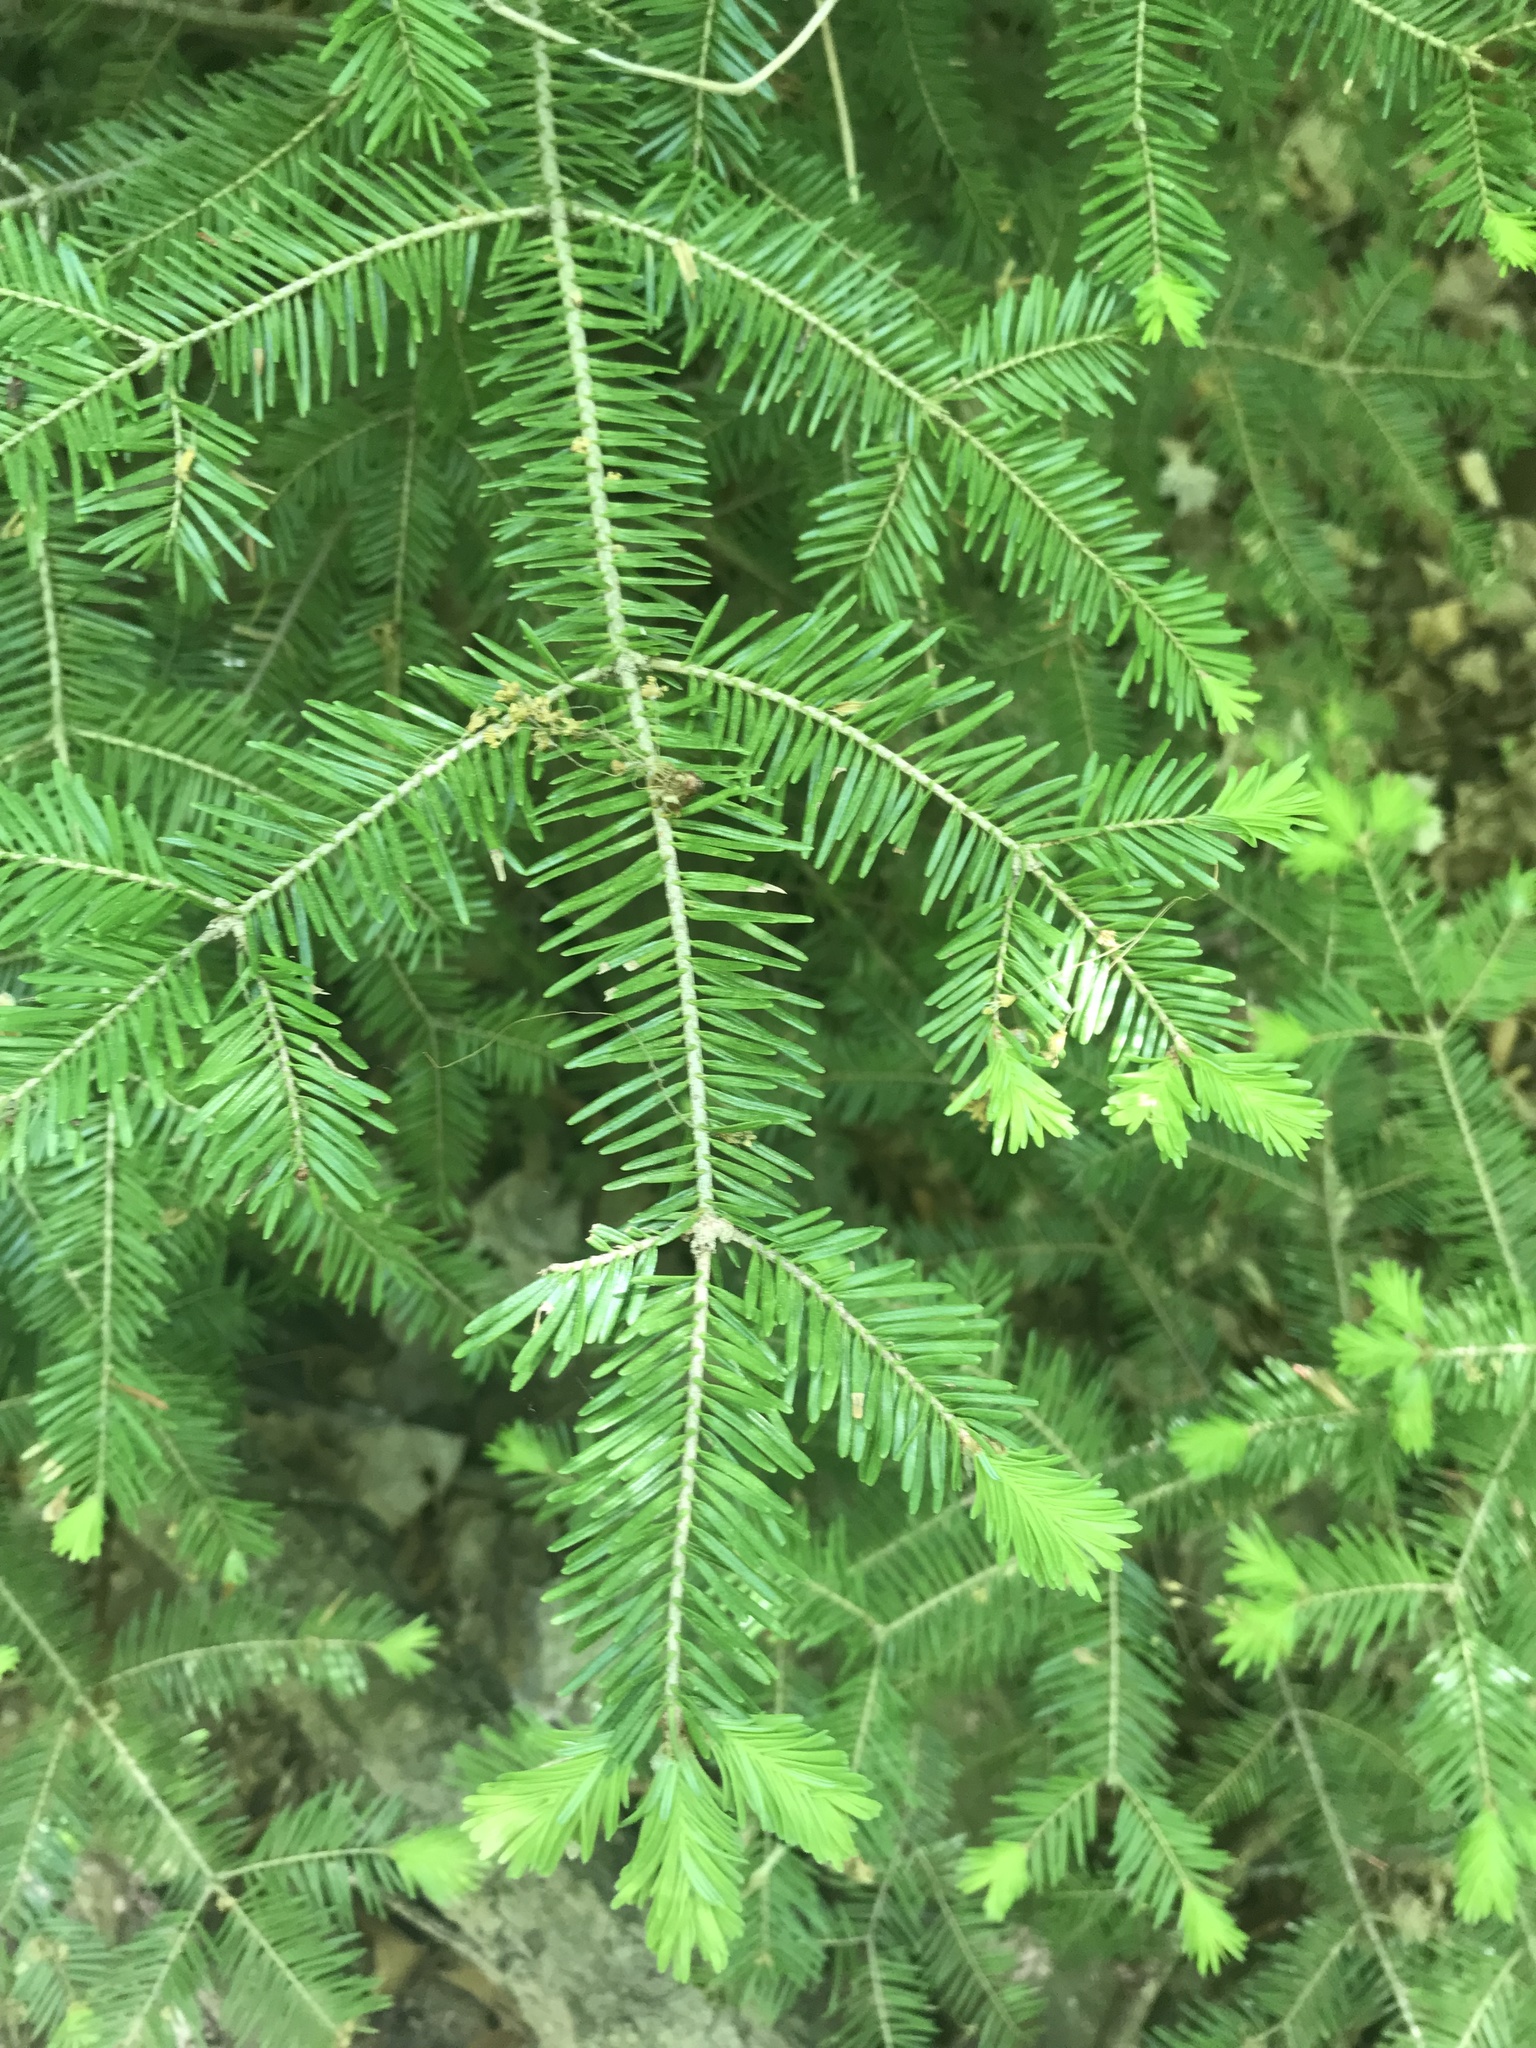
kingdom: Plantae
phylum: Tracheophyta
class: Pinopsida
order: Pinales
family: Pinaceae
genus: Abies
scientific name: Abies balsamea
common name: Balsam fir
